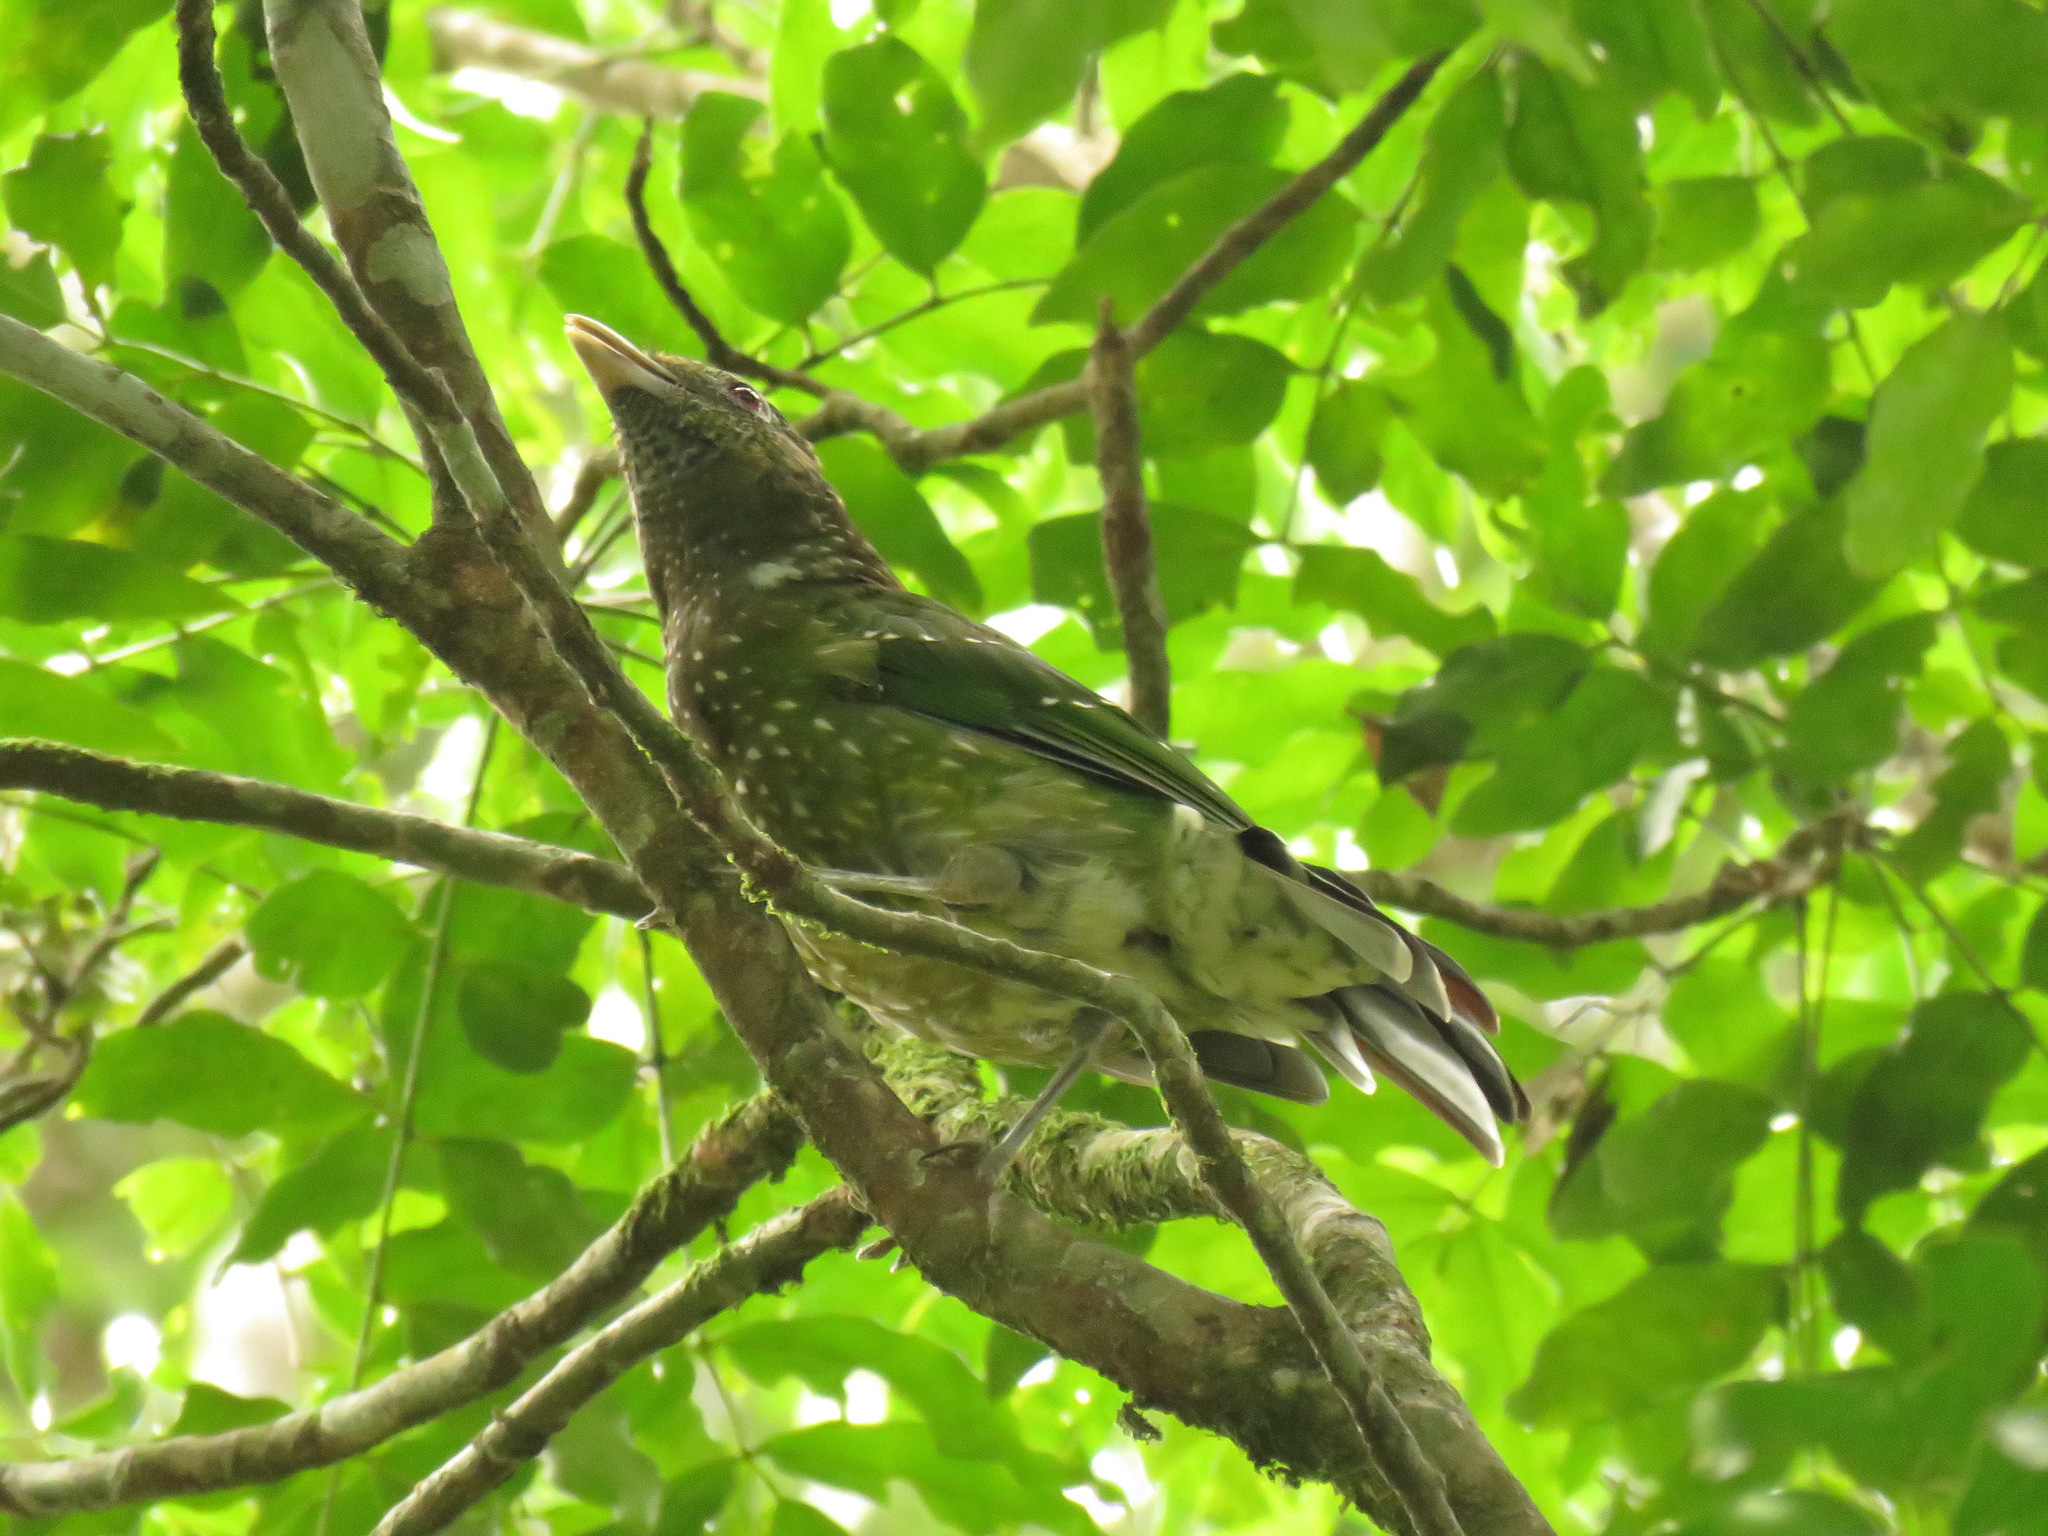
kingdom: Animalia
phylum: Chordata
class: Aves
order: Passeriformes
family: Ptilonorhynchidae
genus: Ailuroedus
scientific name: Ailuroedus crassirostris
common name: Green catbird
